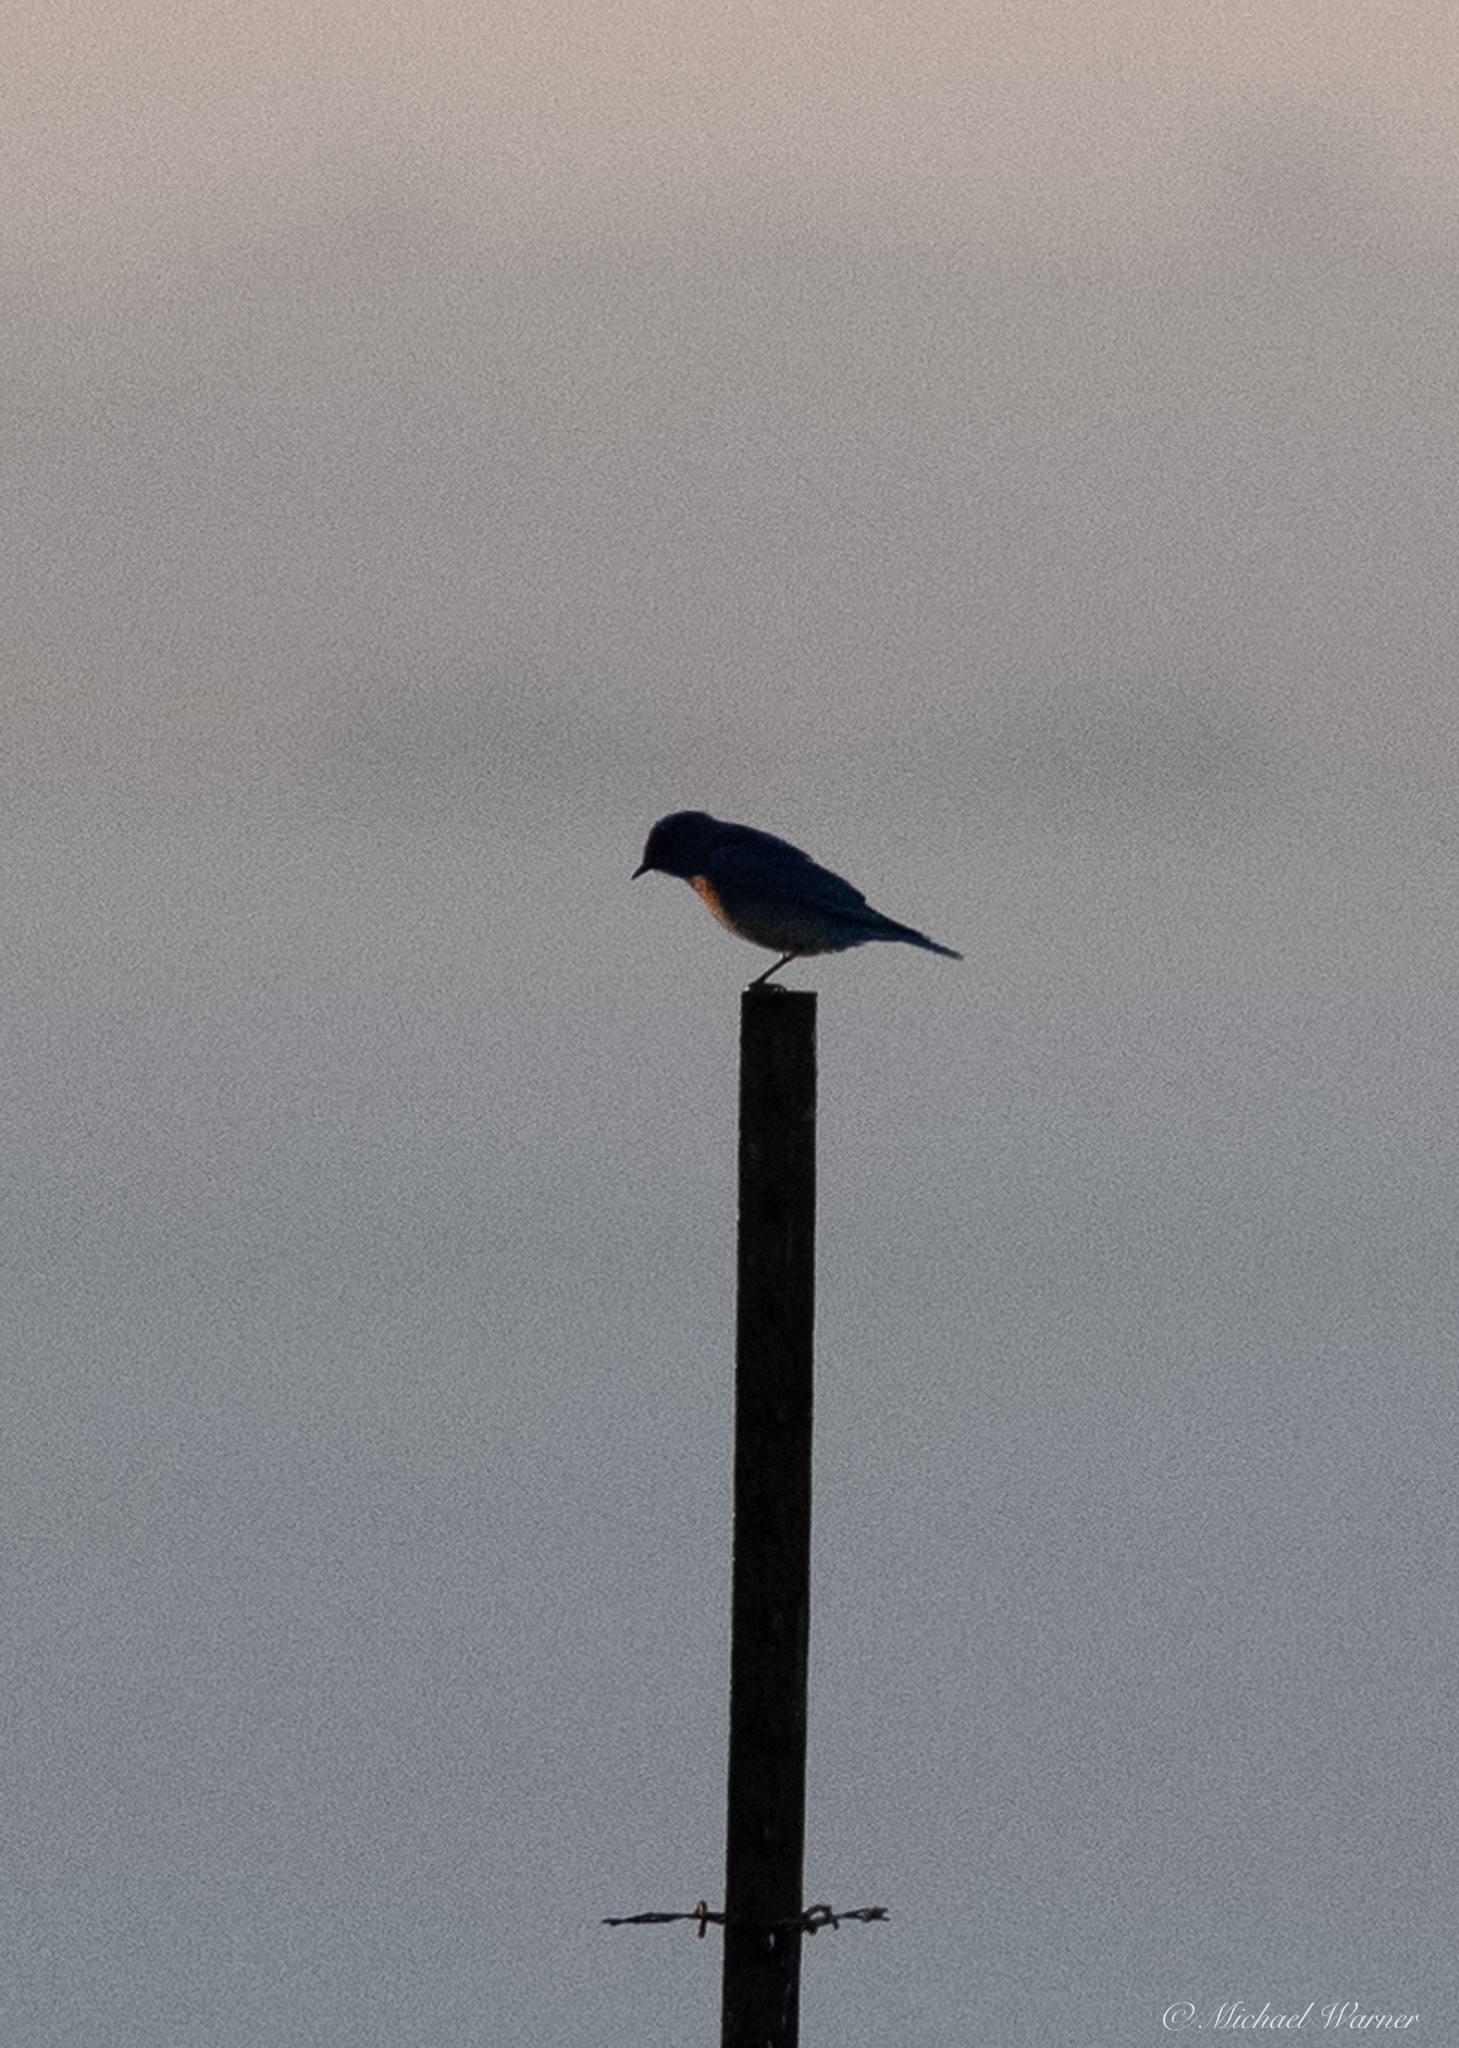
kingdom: Animalia
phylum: Chordata
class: Aves
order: Passeriformes
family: Turdidae
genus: Sialia
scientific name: Sialia mexicana
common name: Western bluebird
